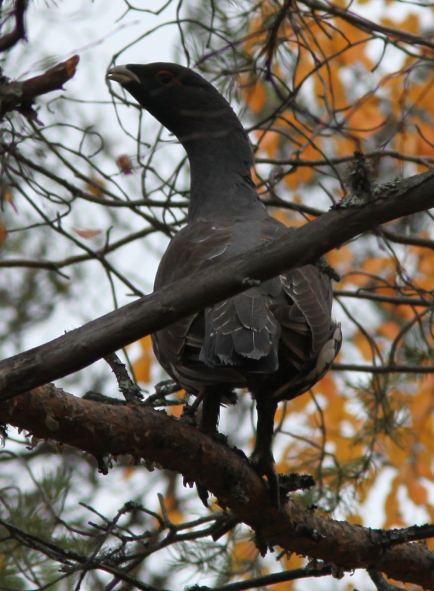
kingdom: Animalia
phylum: Chordata
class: Aves
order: Galliformes
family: Phasianidae
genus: Tetrao
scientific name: Tetrao urogallus
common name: Western capercaillie
